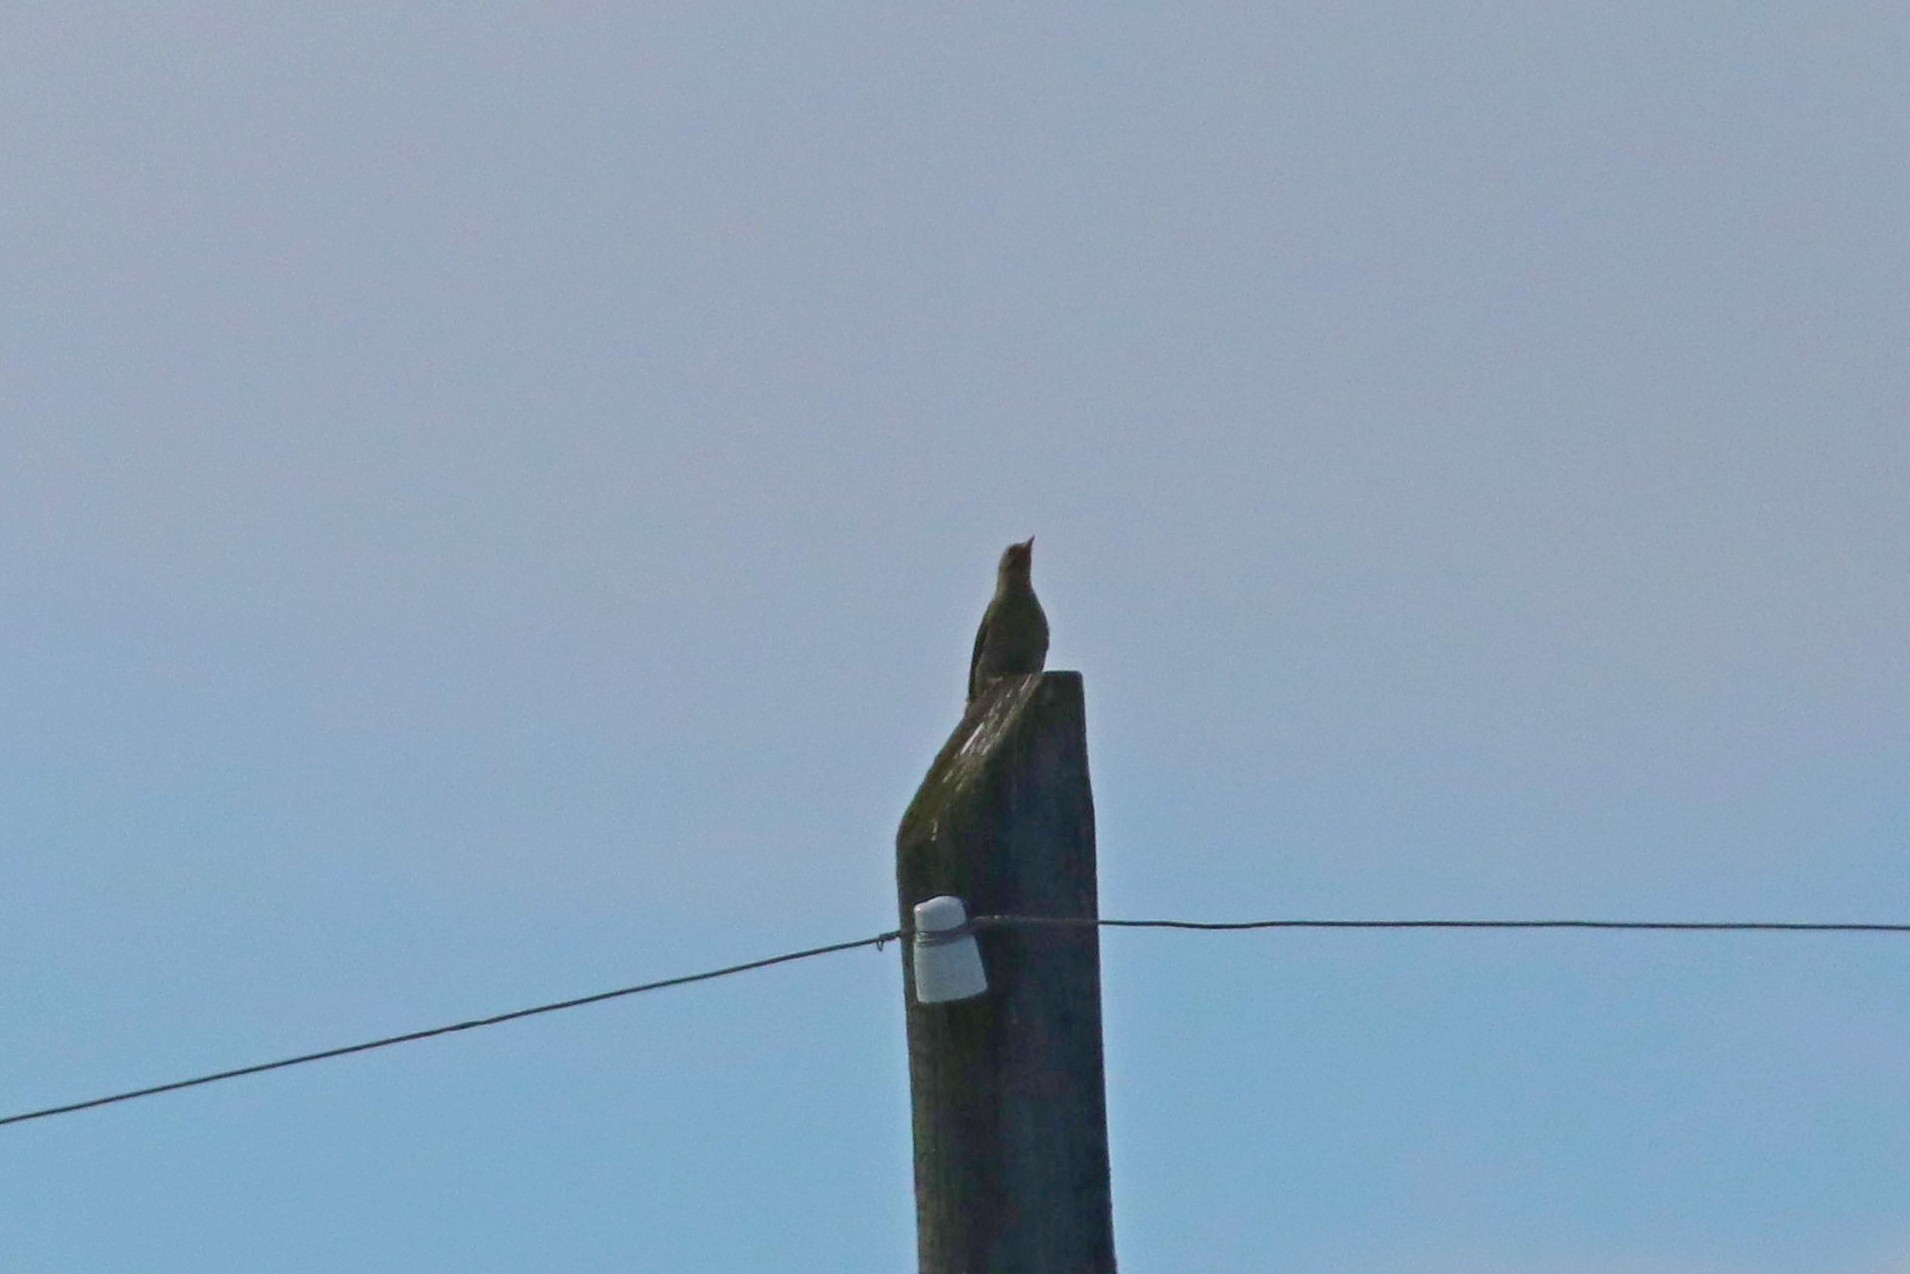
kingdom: Animalia
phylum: Chordata
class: Aves
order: Piciformes
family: Picidae
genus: Picus
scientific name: Picus canus
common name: Grey-headed woodpecker
